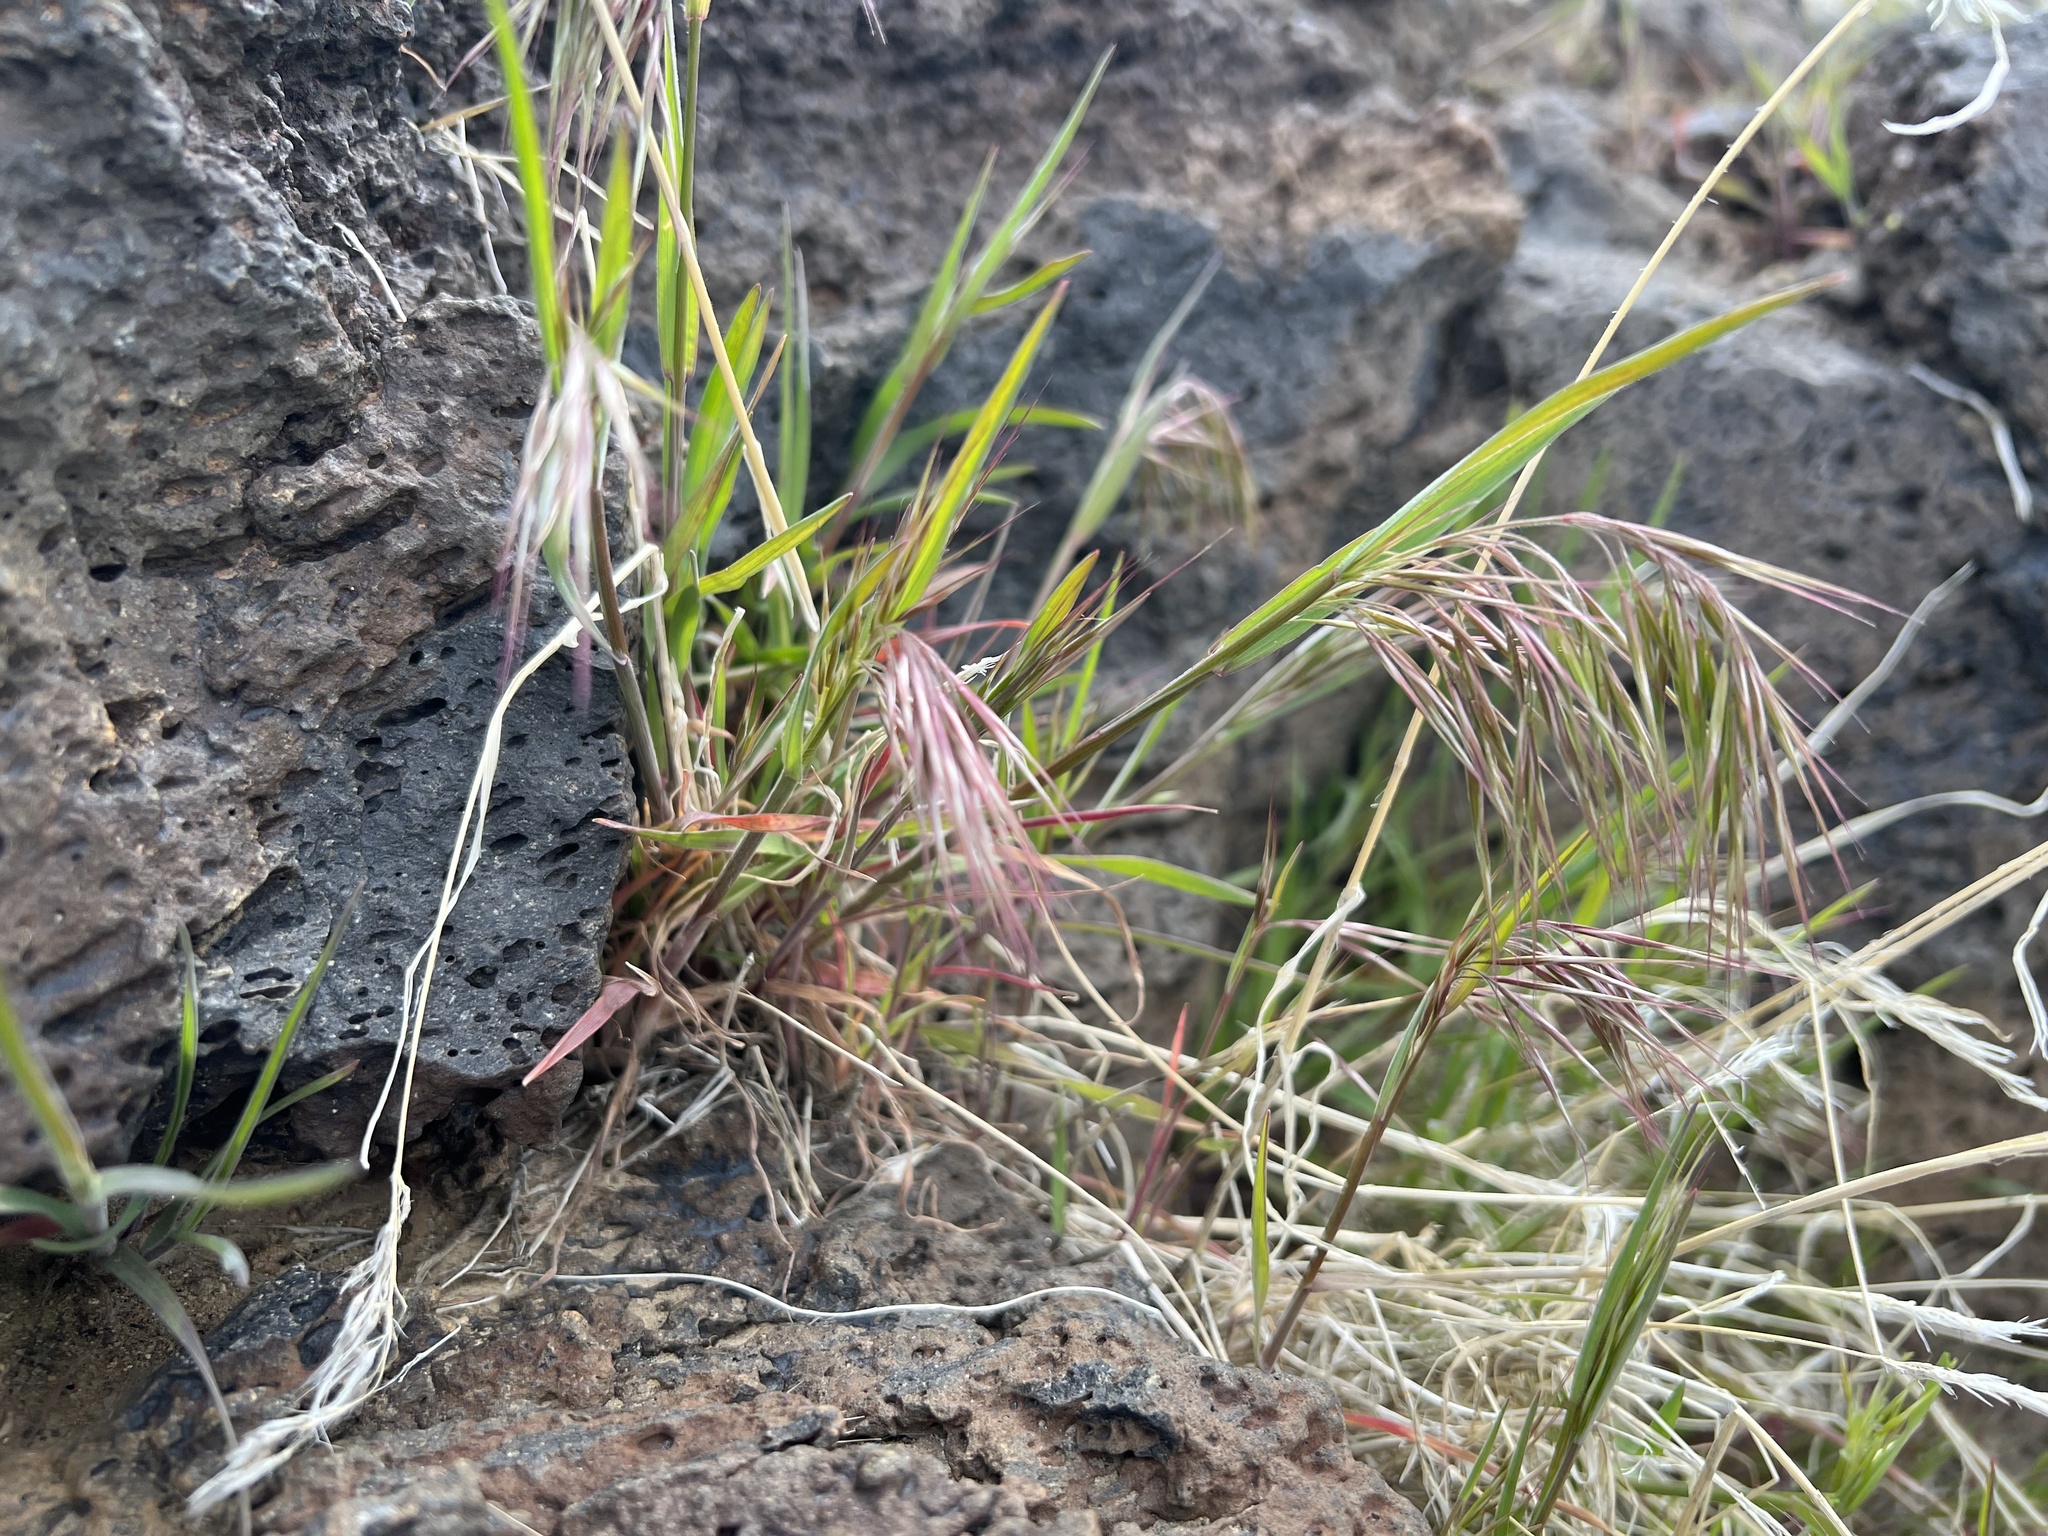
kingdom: Plantae
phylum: Tracheophyta
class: Liliopsida
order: Poales
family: Poaceae
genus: Bromus
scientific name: Bromus tectorum
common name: Cheatgrass
